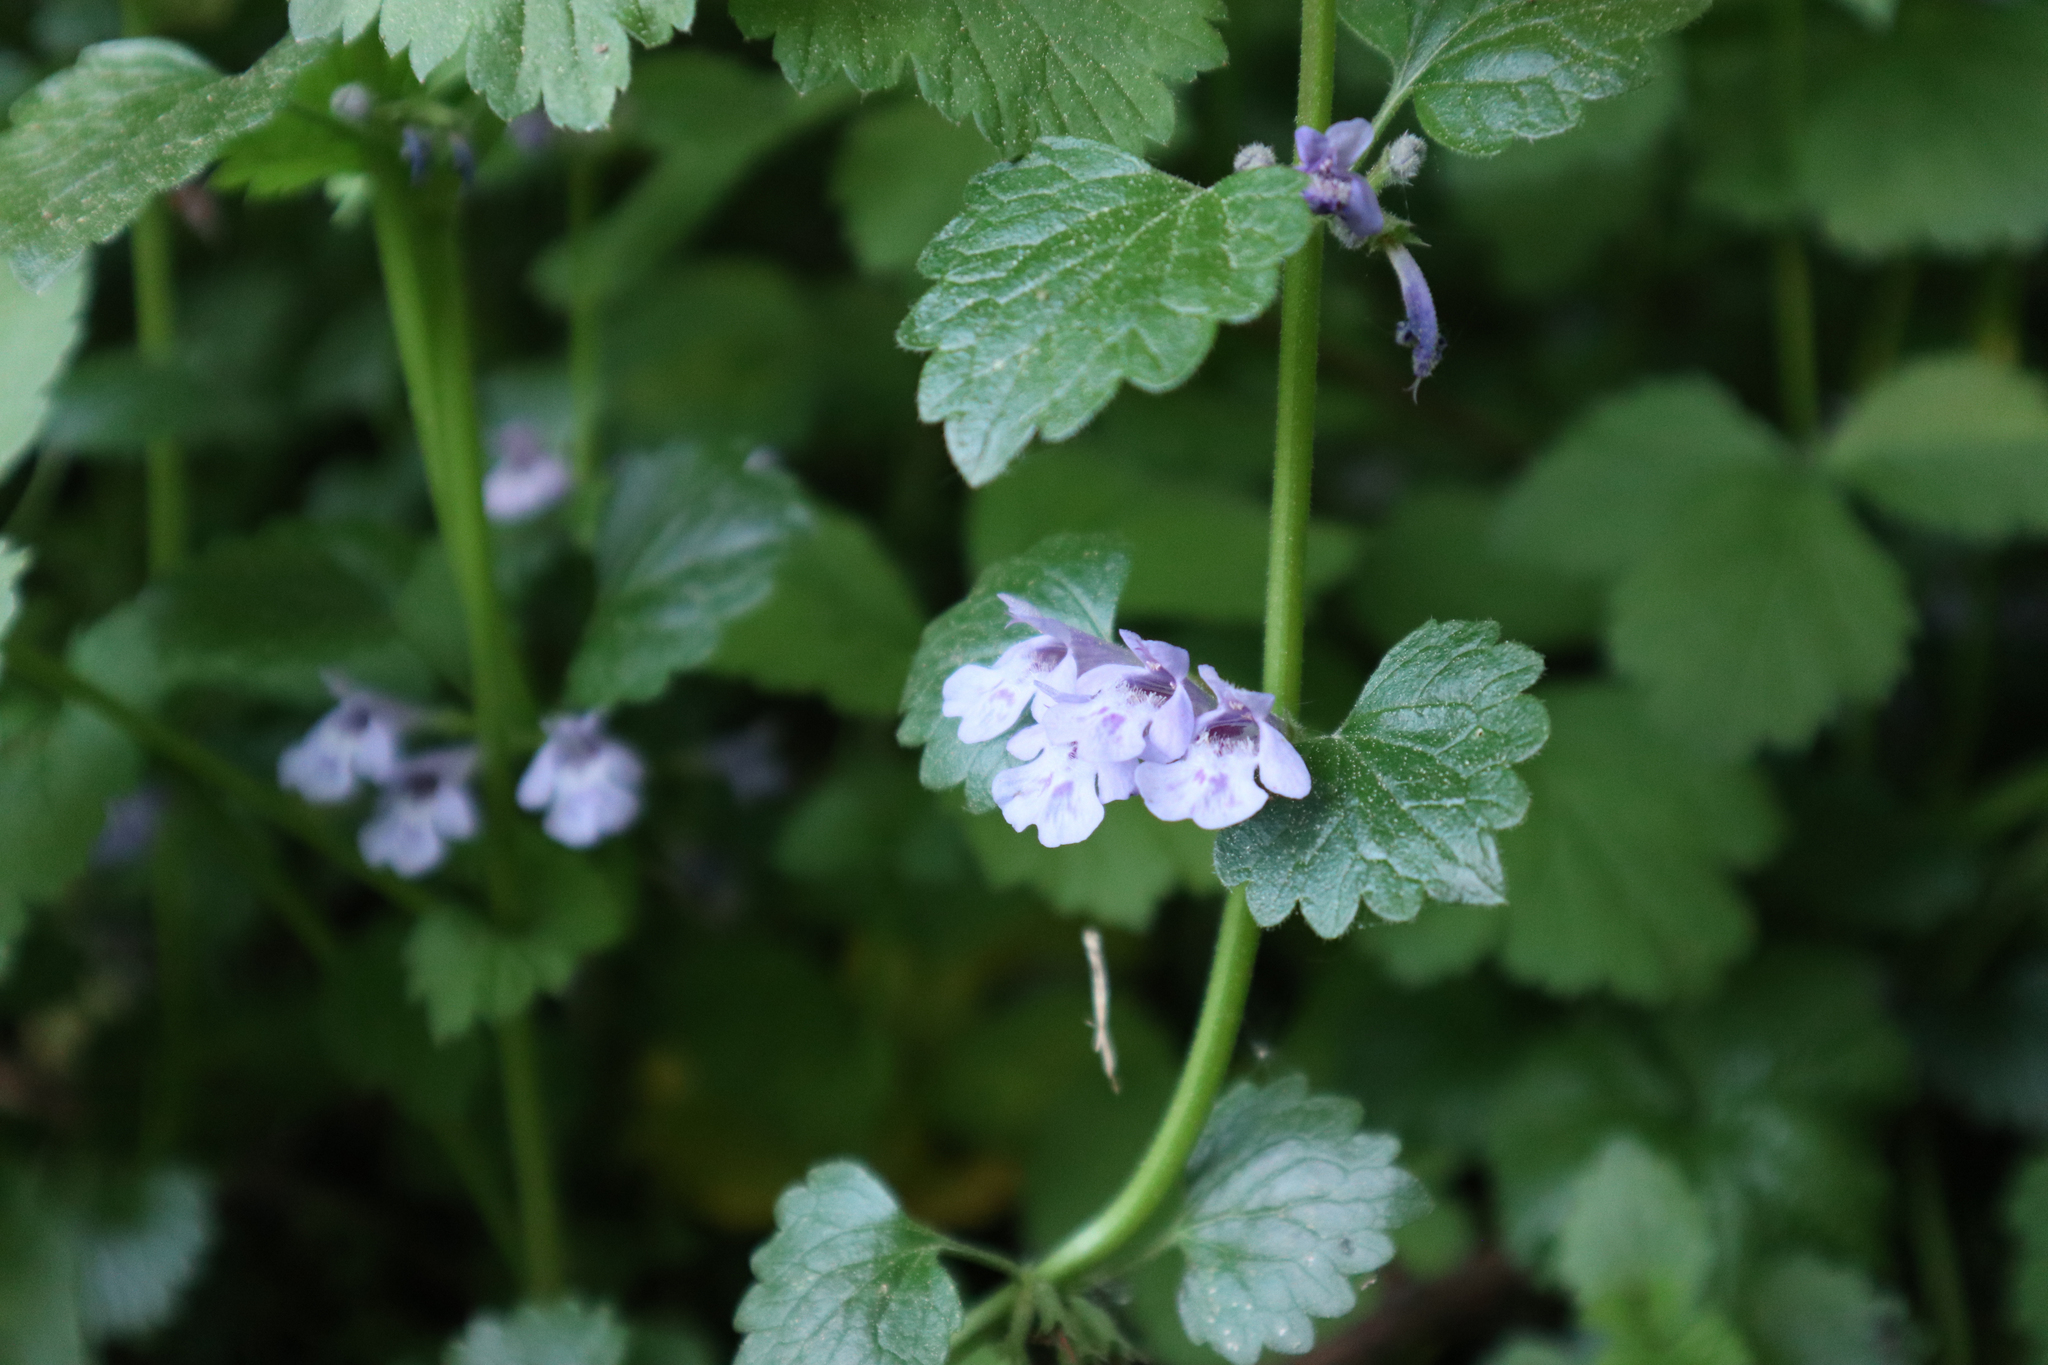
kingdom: Plantae
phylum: Tracheophyta
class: Magnoliopsida
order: Lamiales
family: Lamiaceae
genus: Glechoma
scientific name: Glechoma hederacea
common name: Ground ivy
